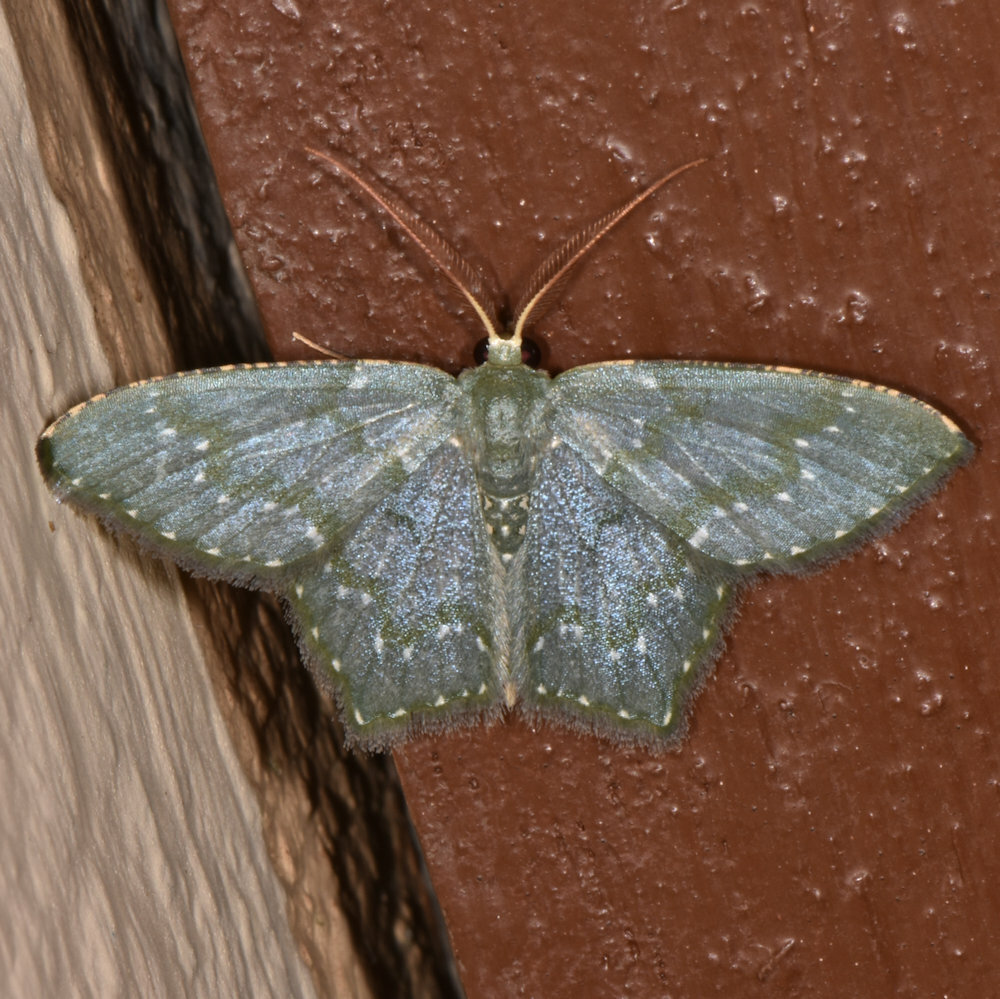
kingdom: Animalia
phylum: Arthropoda
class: Insecta
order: Lepidoptera
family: Geometridae
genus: Chloropteryx
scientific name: Chloropteryx diluta
